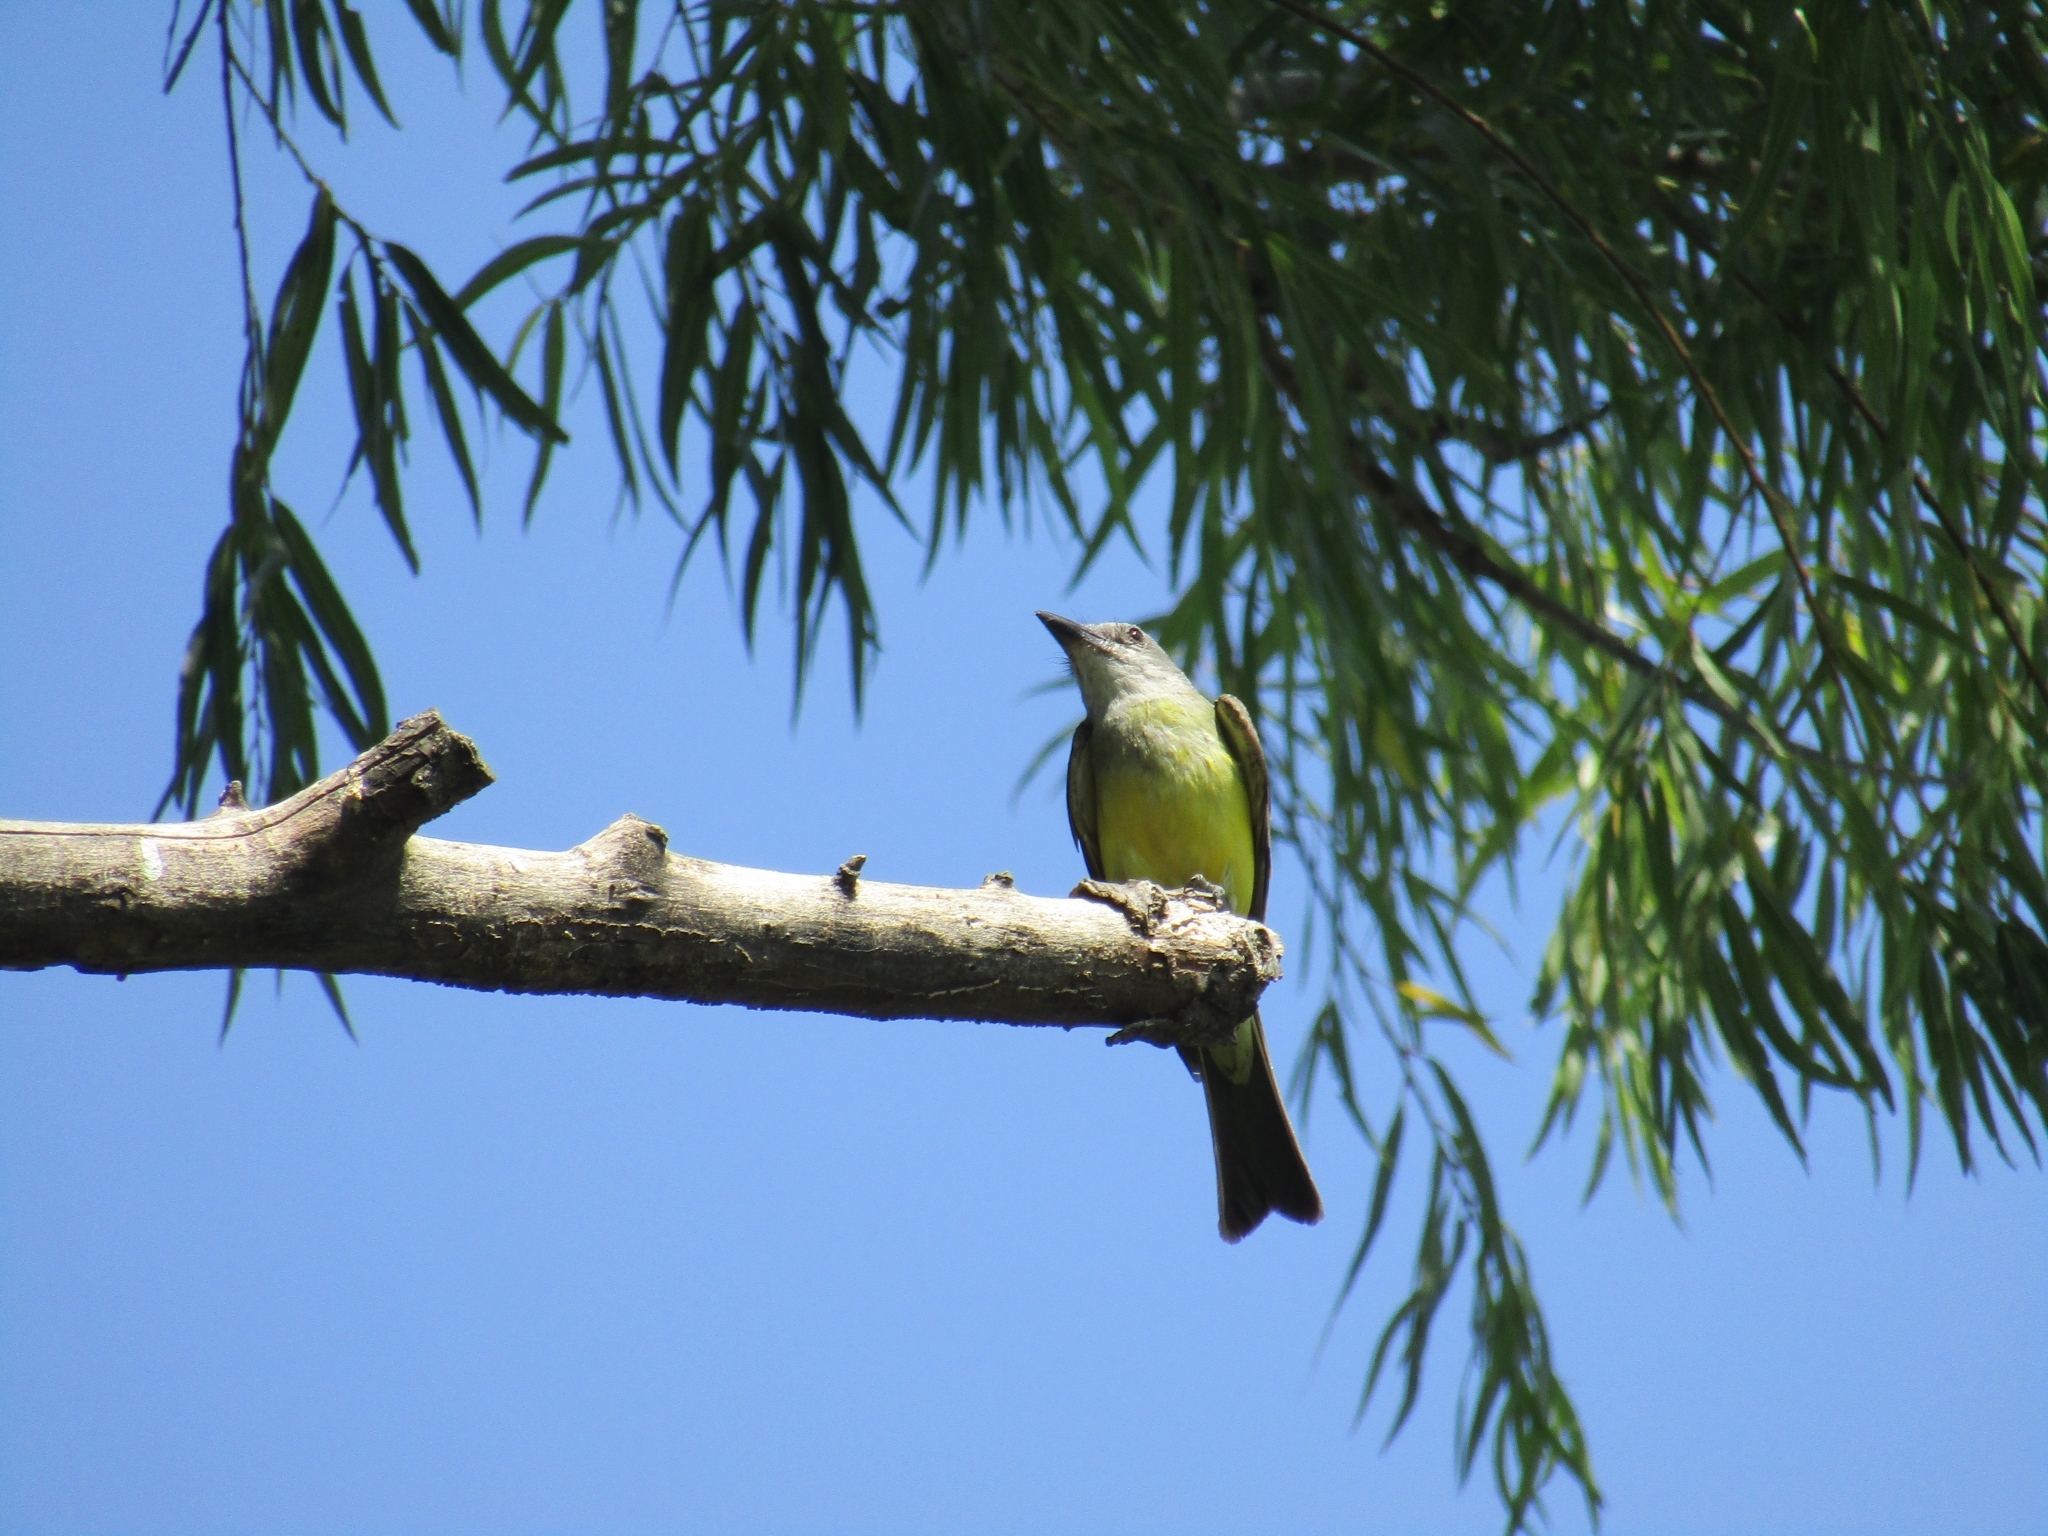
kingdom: Animalia
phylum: Chordata
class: Aves
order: Passeriformes
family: Tyrannidae
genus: Tyrannus
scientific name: Tyrannus melancholicus
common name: Tropical kingbird
